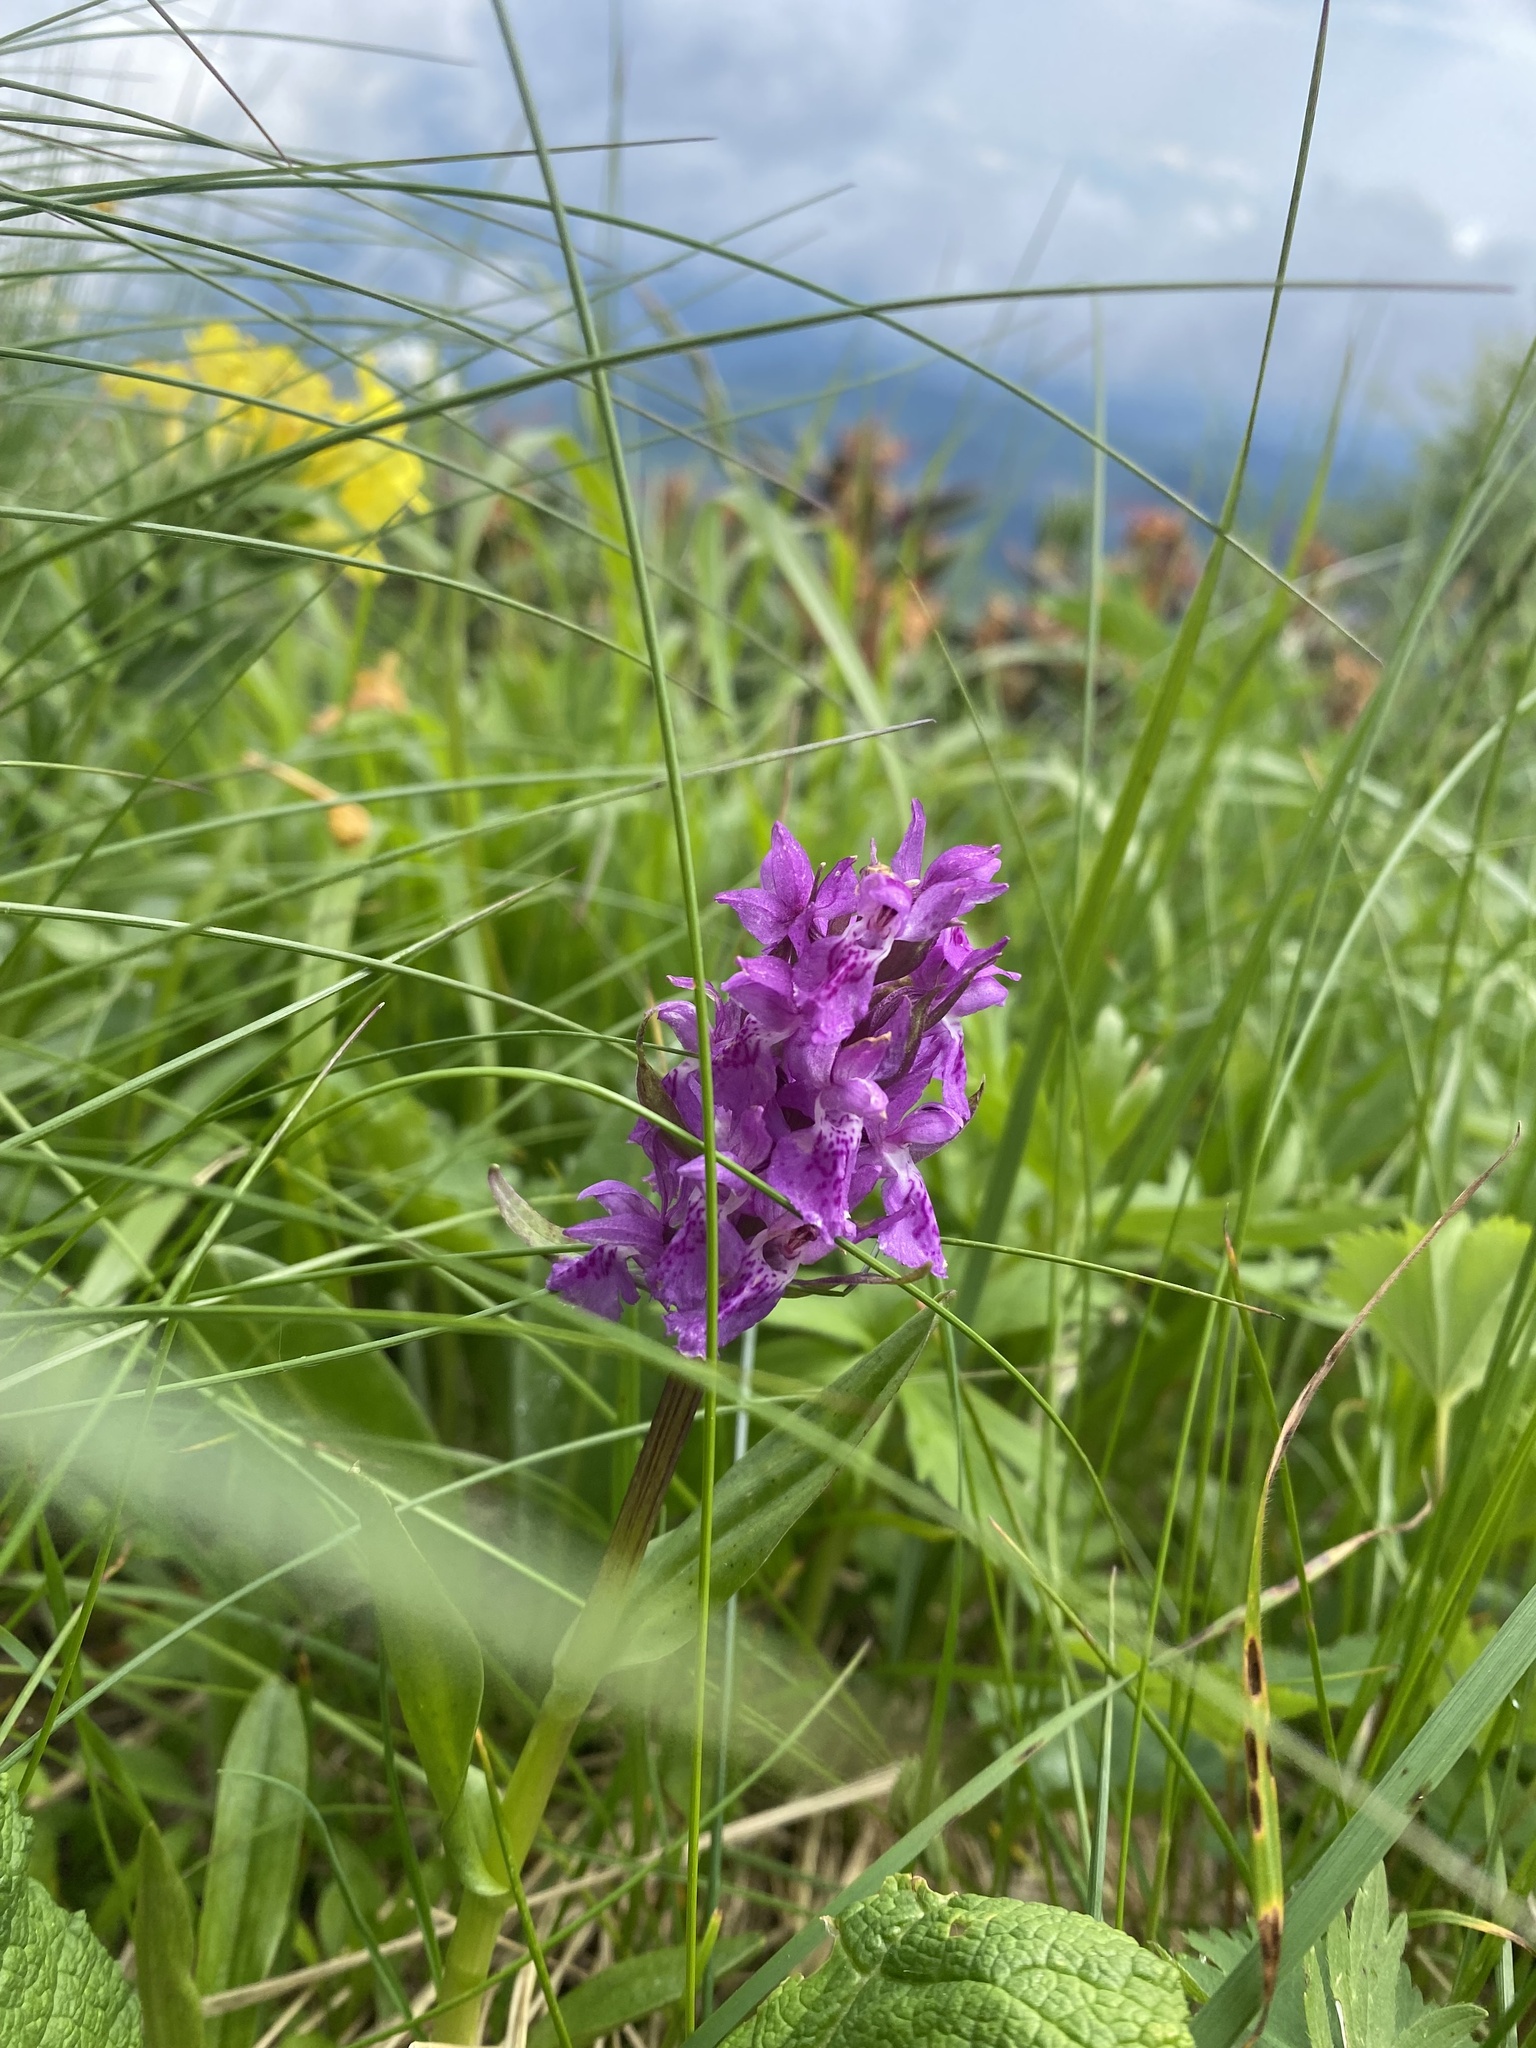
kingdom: Plantae
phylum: Tracheophyta
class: Liliopsida
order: Asparagales
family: Orchidaceae
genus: Dactylorhiza
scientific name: Dactylorhiza euxina
